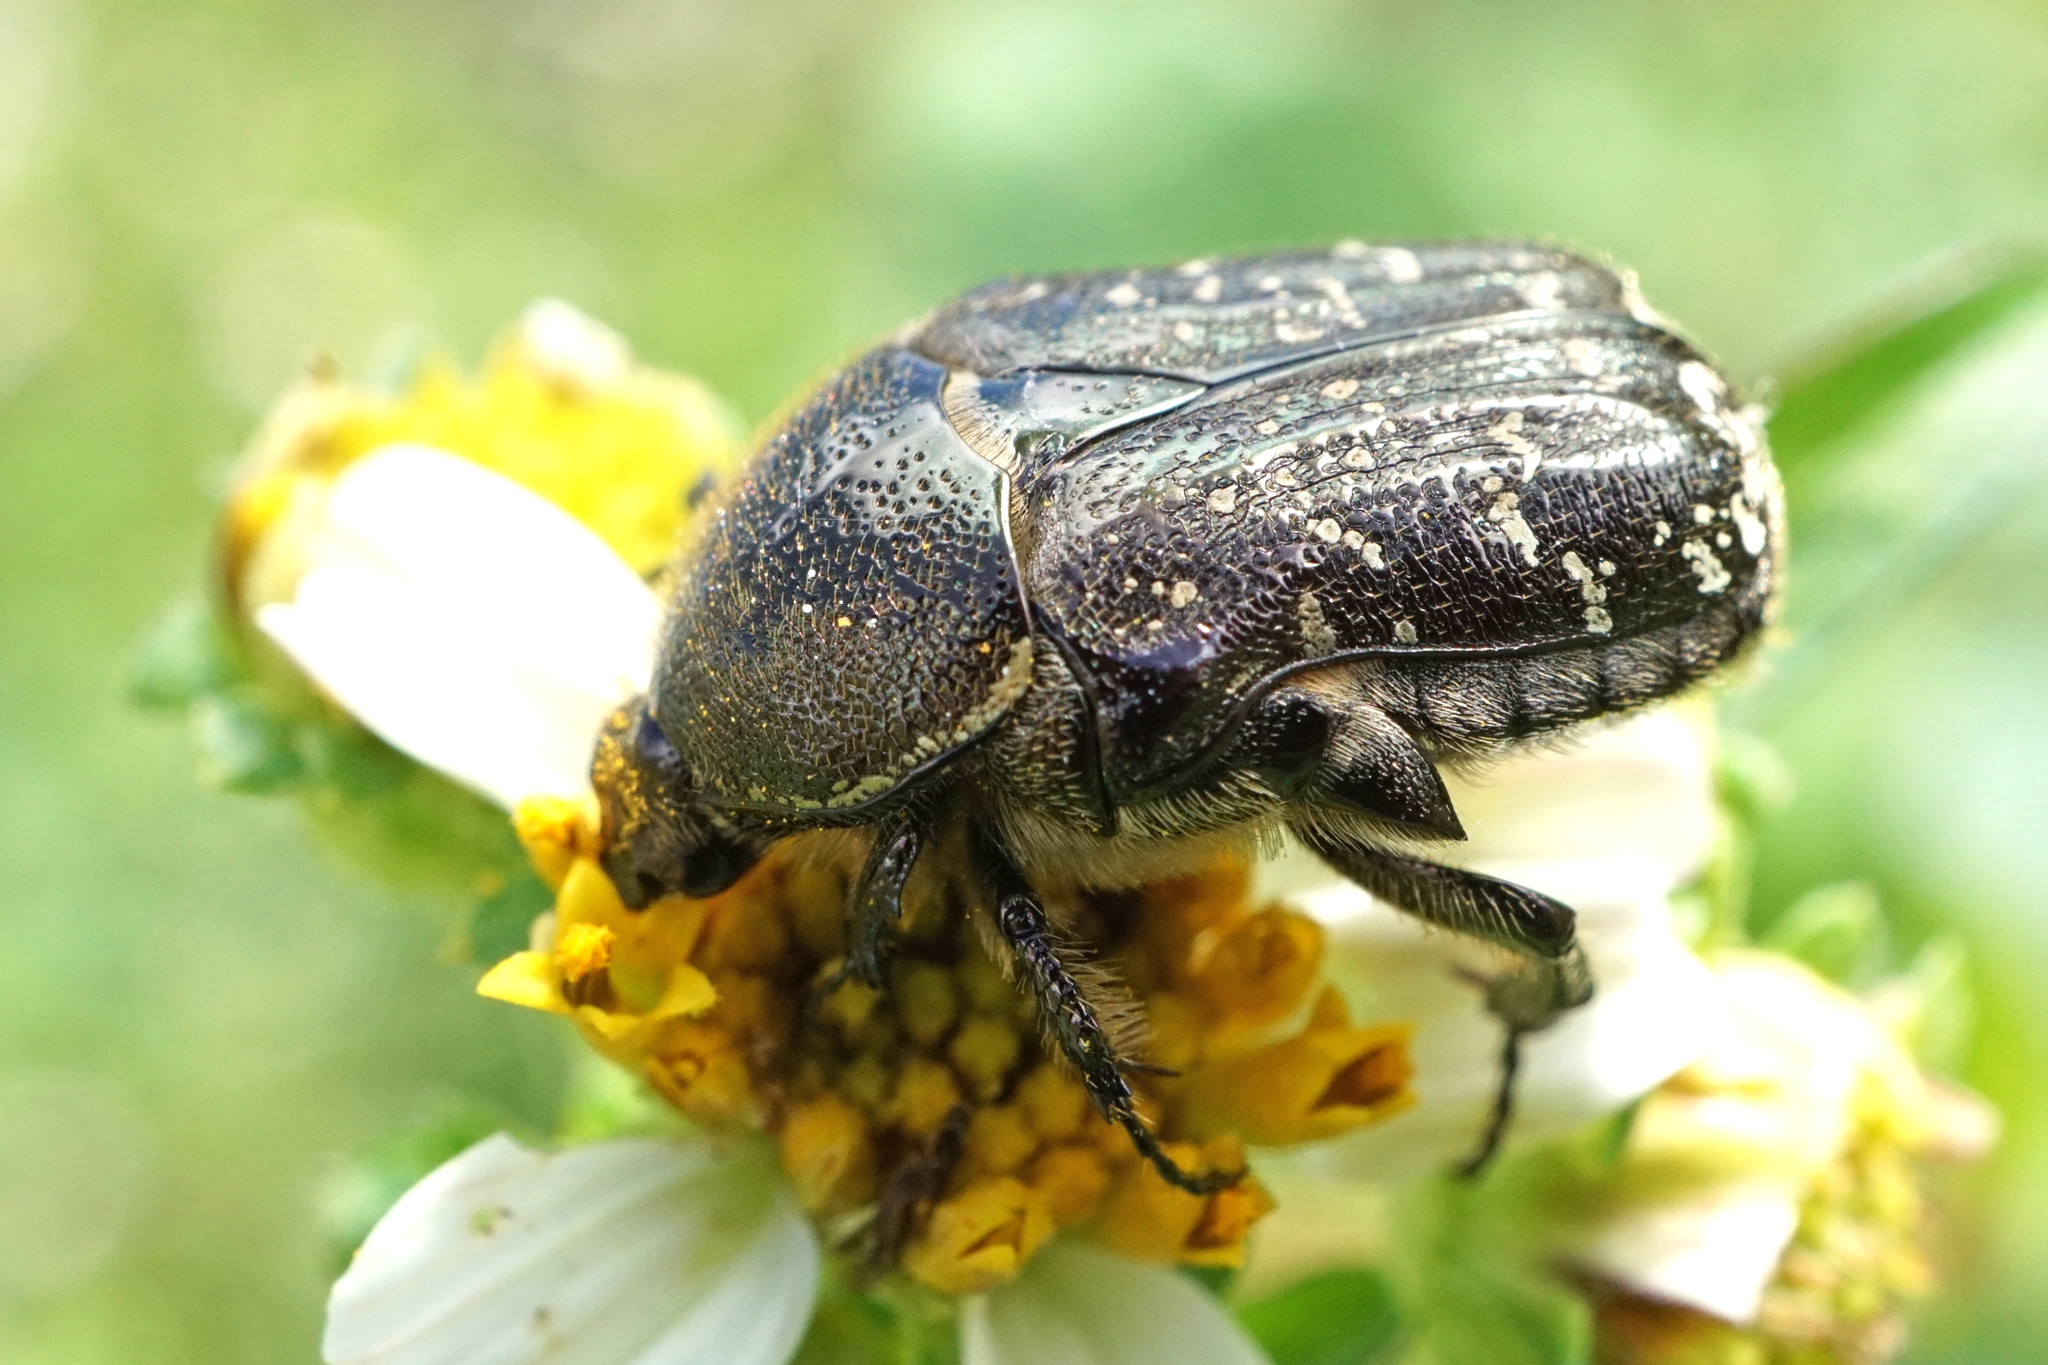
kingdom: Animalia
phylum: Arthropoda
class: Insecta
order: Coleoptera
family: Scarabaeidae
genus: Euphoria
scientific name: Euphoria sepulcralis
